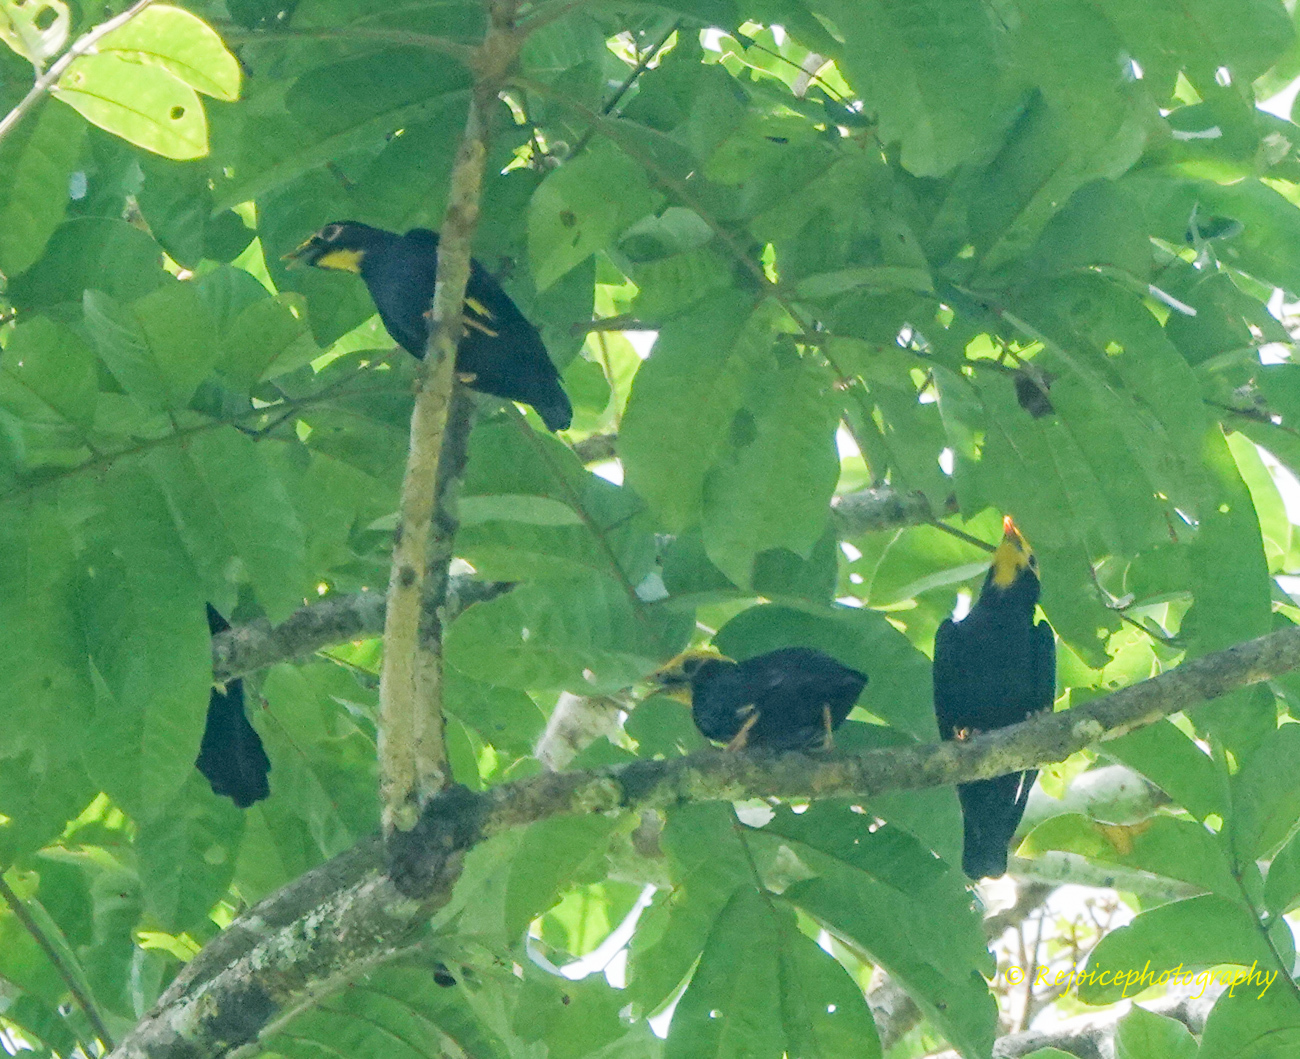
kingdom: Animalia
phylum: Chordata
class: Aves
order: Passeriformes
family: Sturnidae
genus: Ampeliceps
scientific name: Ampeliceps coronatus
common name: Golden-crested myna
